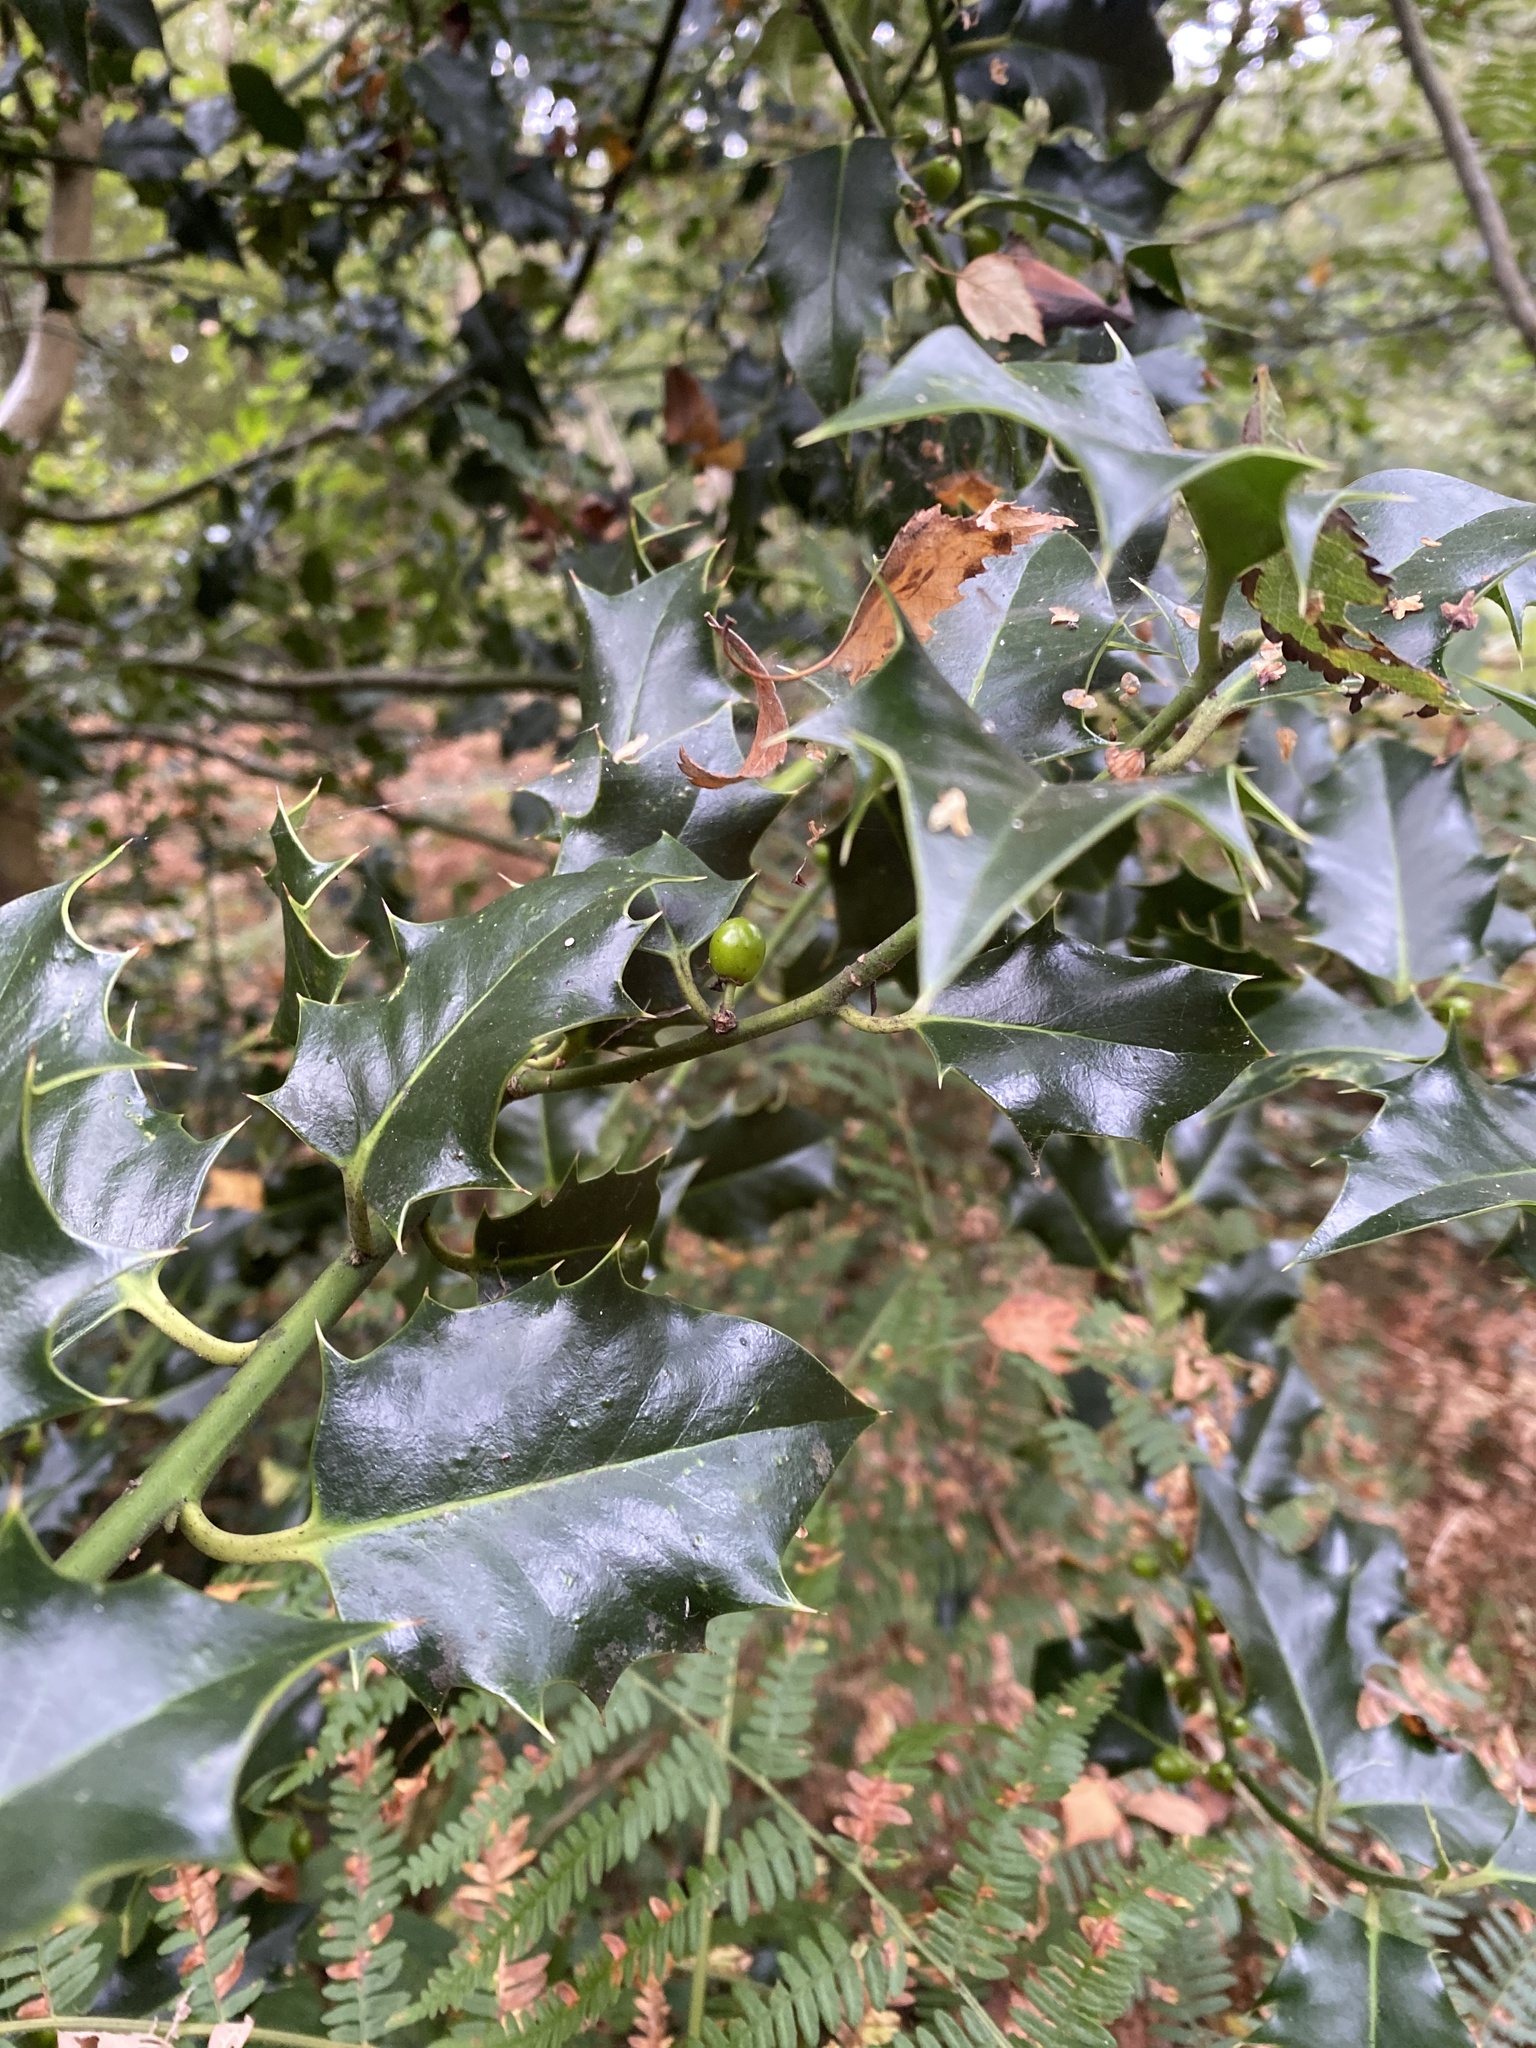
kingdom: Plantae
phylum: Tracheophyta
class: Magnoliopsida
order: Aquifoliales
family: Aquifoliaceae
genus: Ilex
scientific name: Ilex aquifolium
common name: English holly
